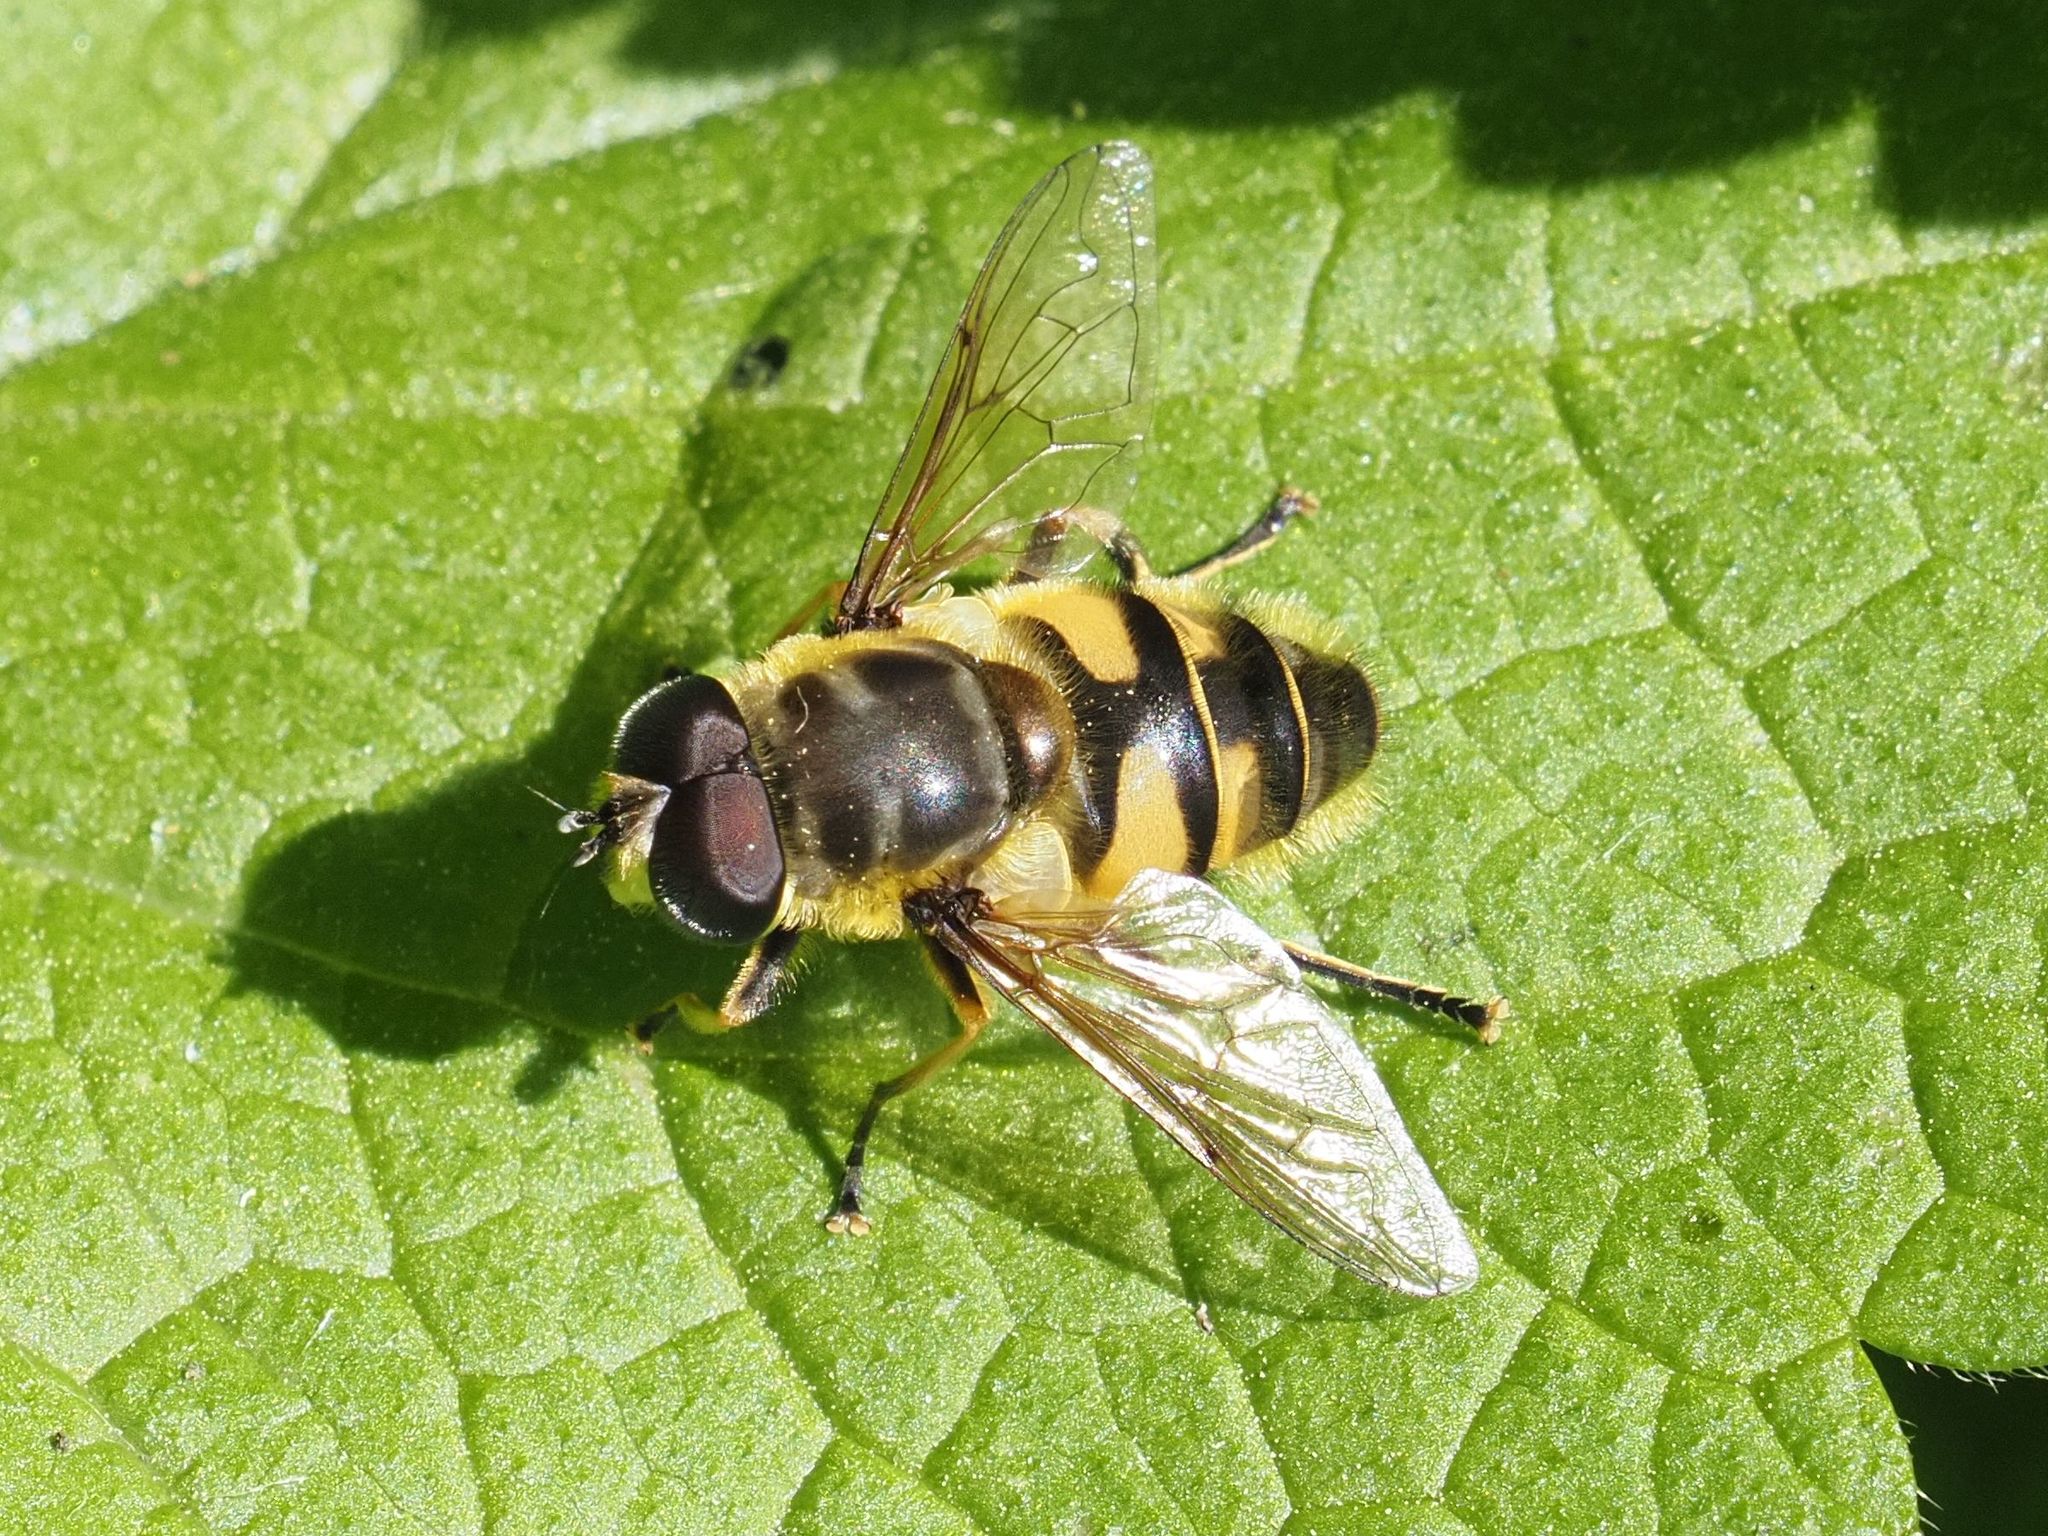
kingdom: Animalia
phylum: Arthropoda
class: Insecta
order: Diptera
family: Syrphidae
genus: Myathropa
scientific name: Myathropa florea
